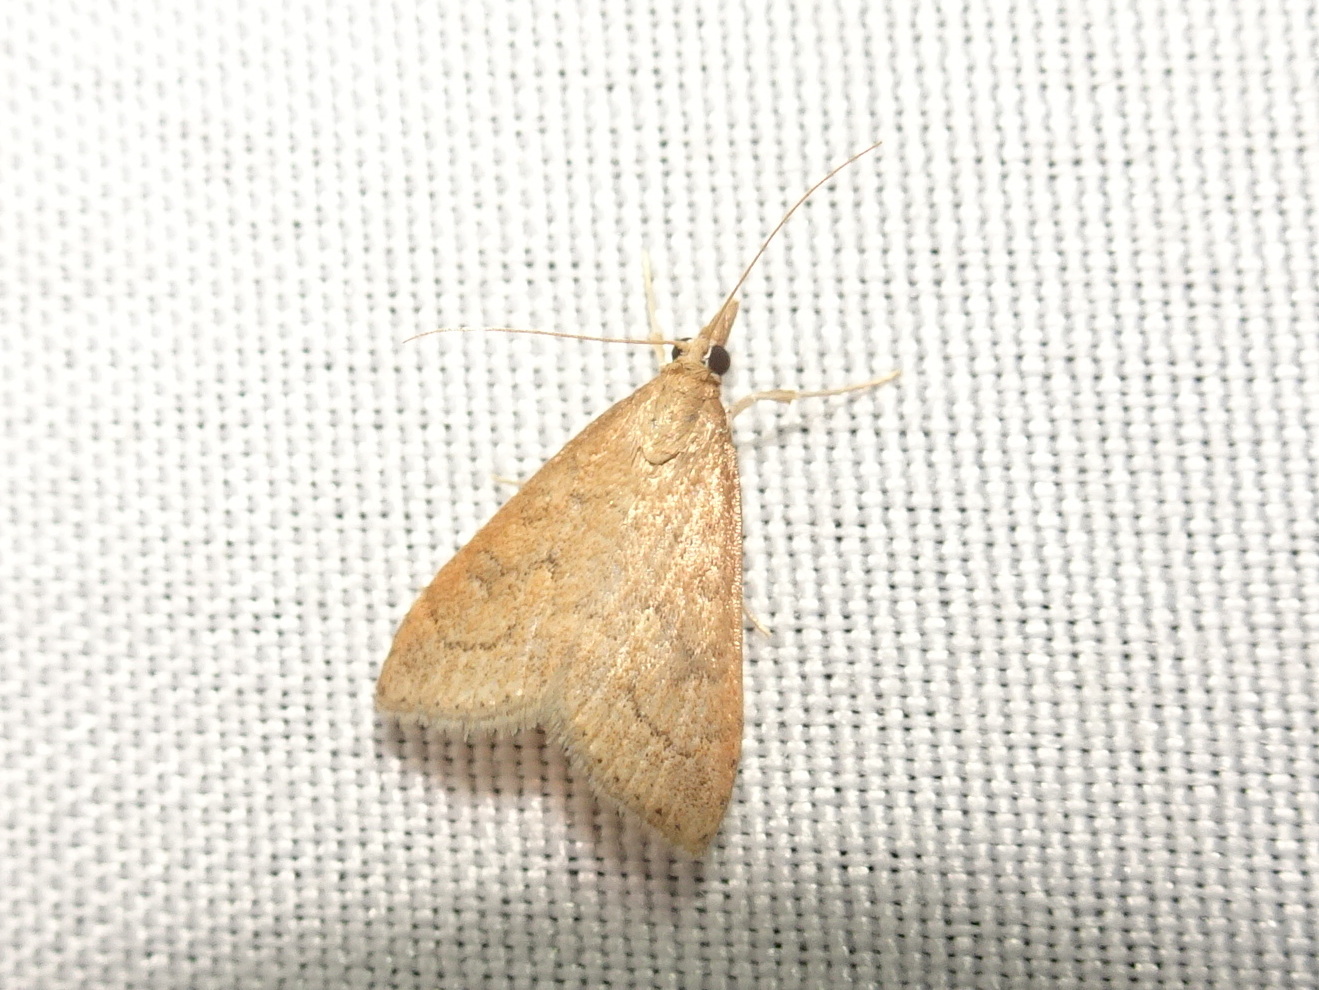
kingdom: Animalia
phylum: Arthropoda
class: Insecta
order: Lepidoptera
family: Crambidae
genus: Udea
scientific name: Udea rubigalis
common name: Celery leaftier moth
